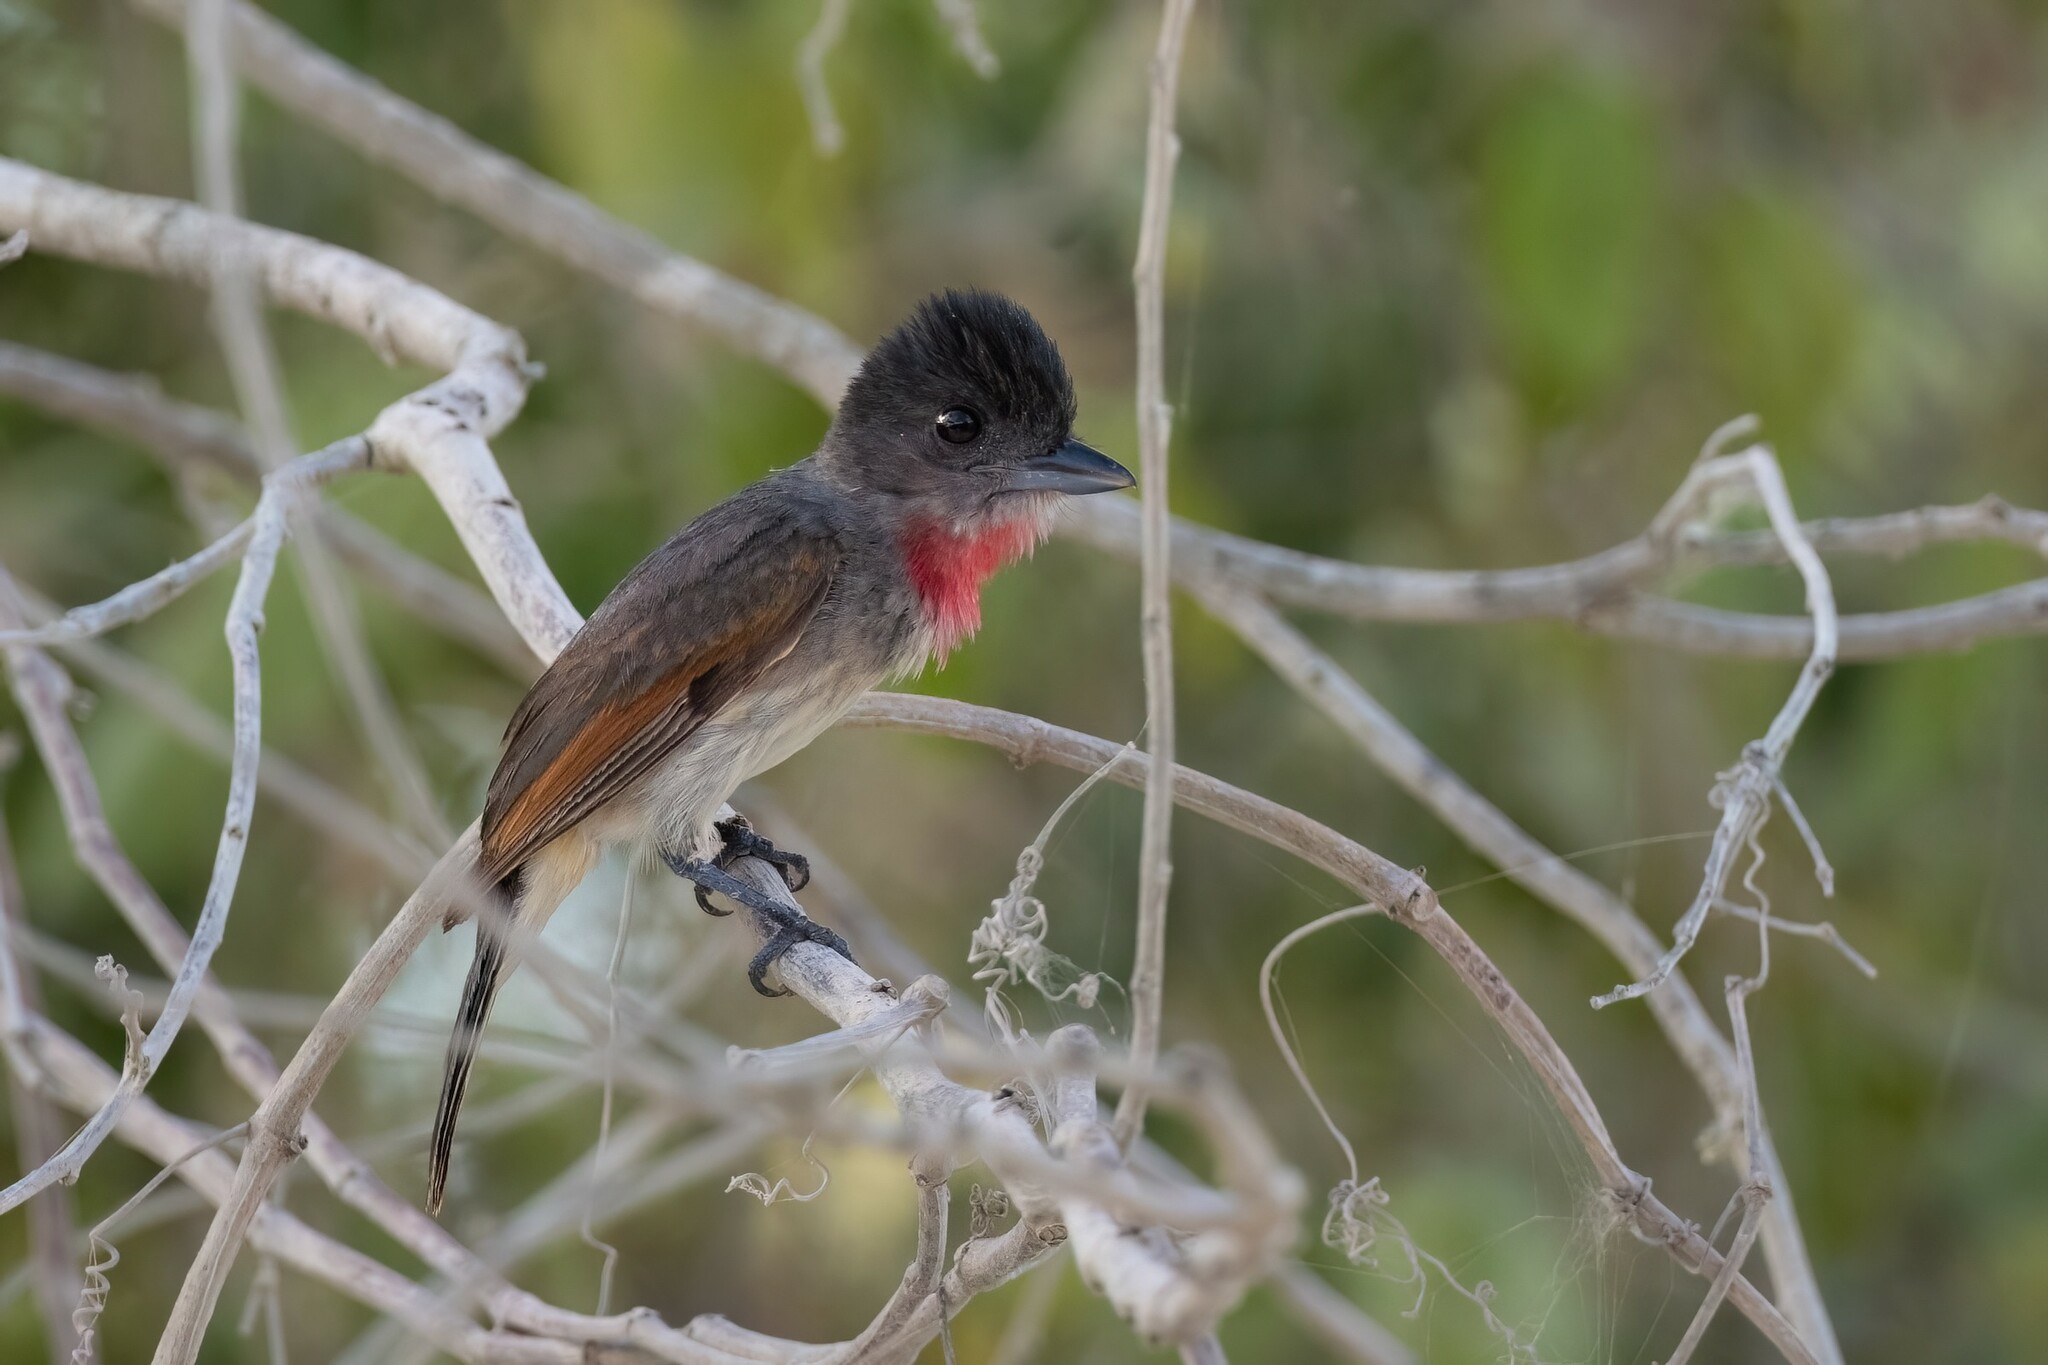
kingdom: Animalia
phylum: Chordata
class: Aves
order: Passeriformes
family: Cotingidae
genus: Pachyramphus
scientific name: Pachyramphus aglaiae
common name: Rose-throated becard
